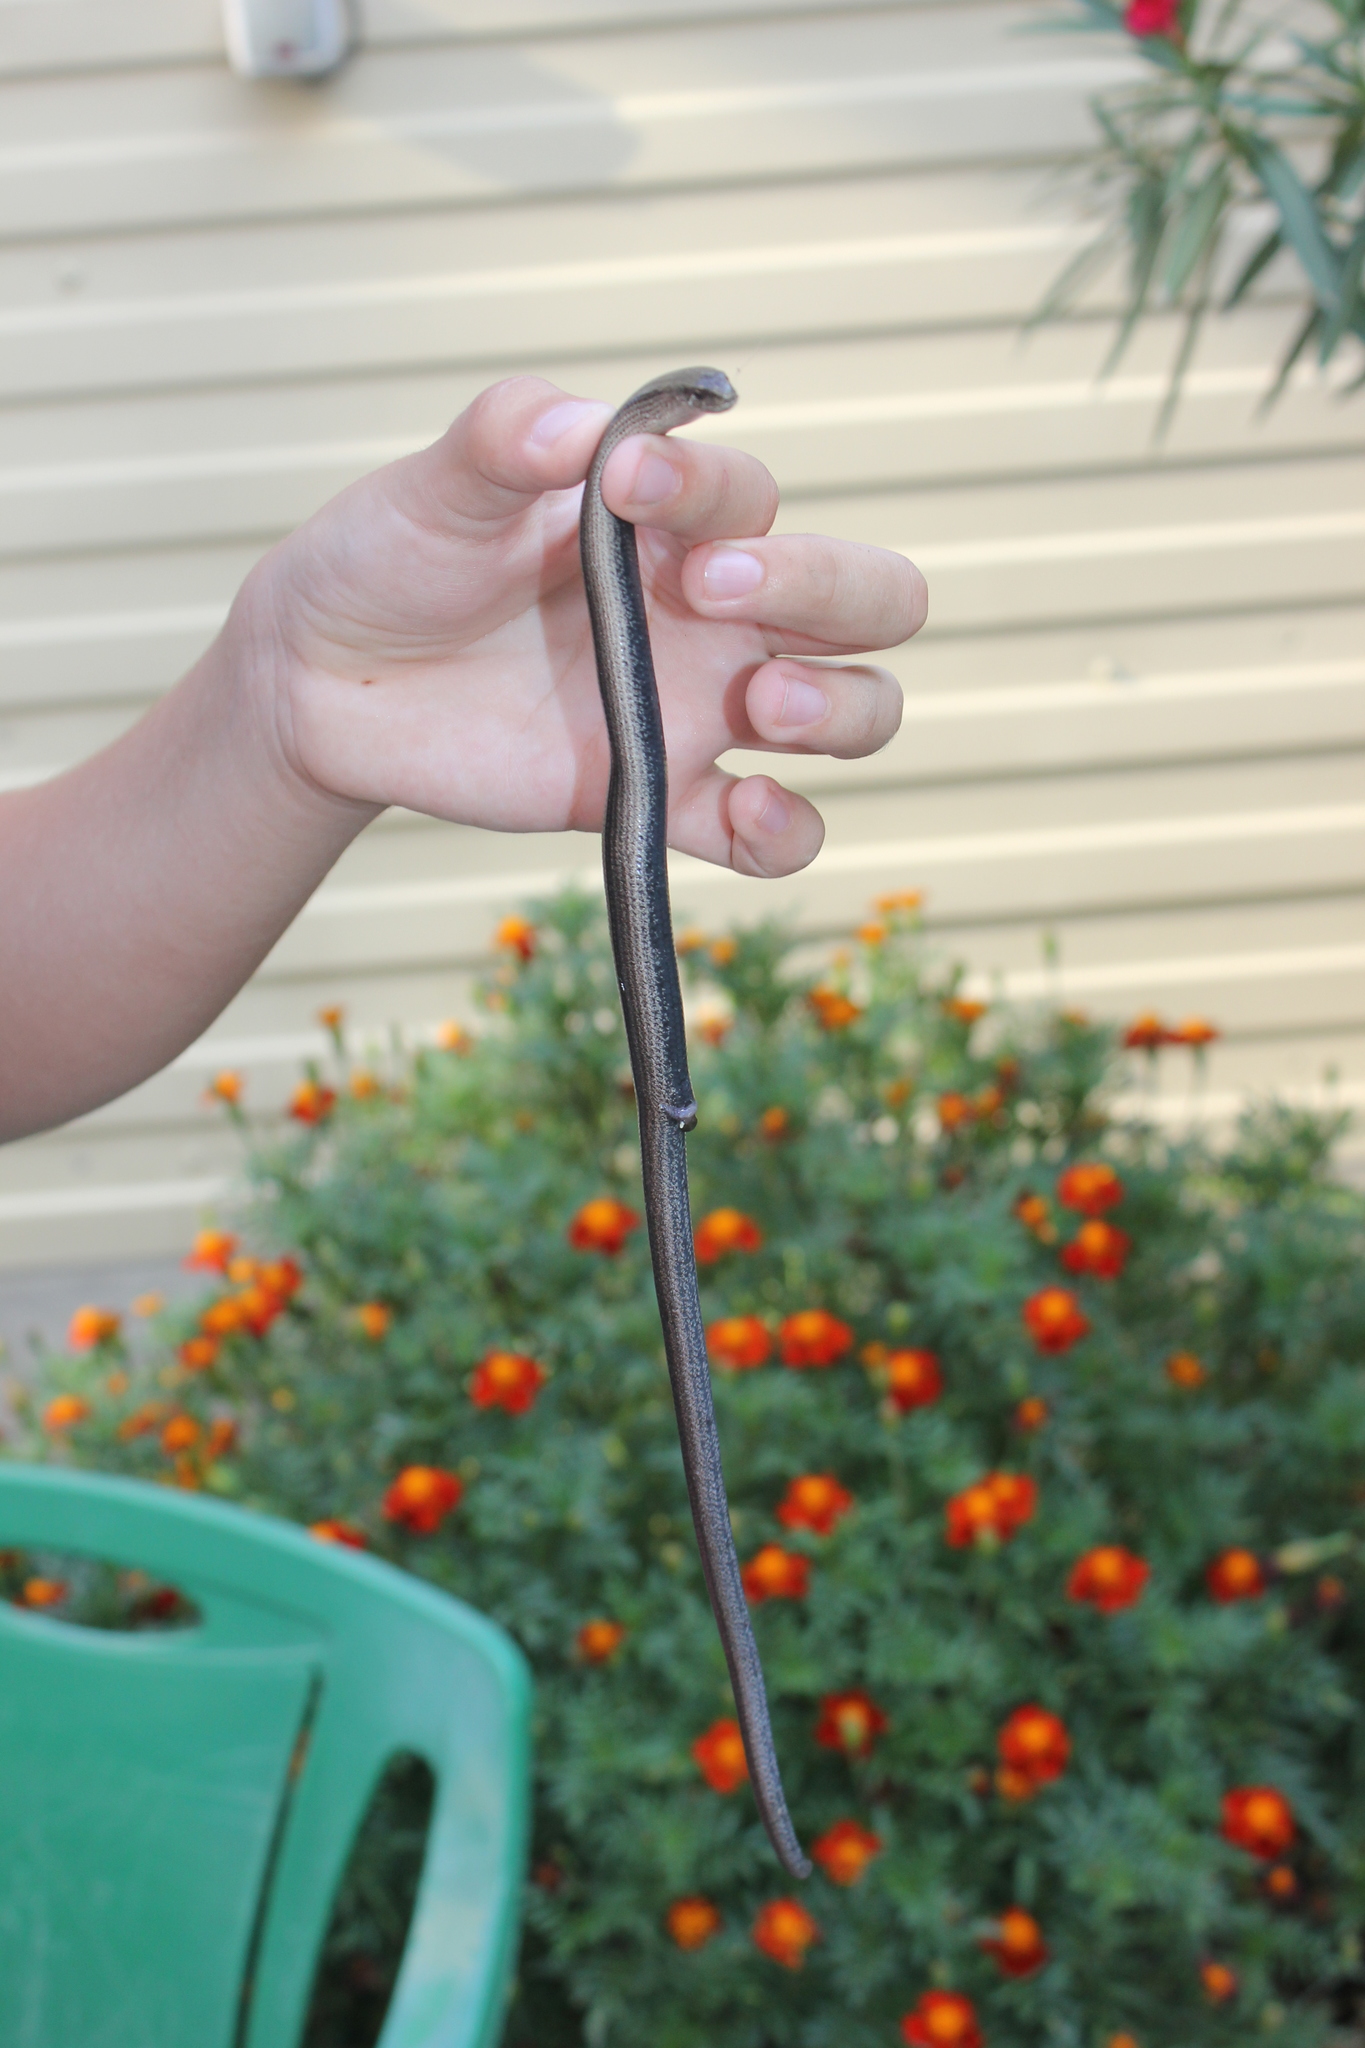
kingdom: Animalia
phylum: Chordata
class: Squamata
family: Anguidae
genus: Anguis
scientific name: Anguis colchica
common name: Slow worm
